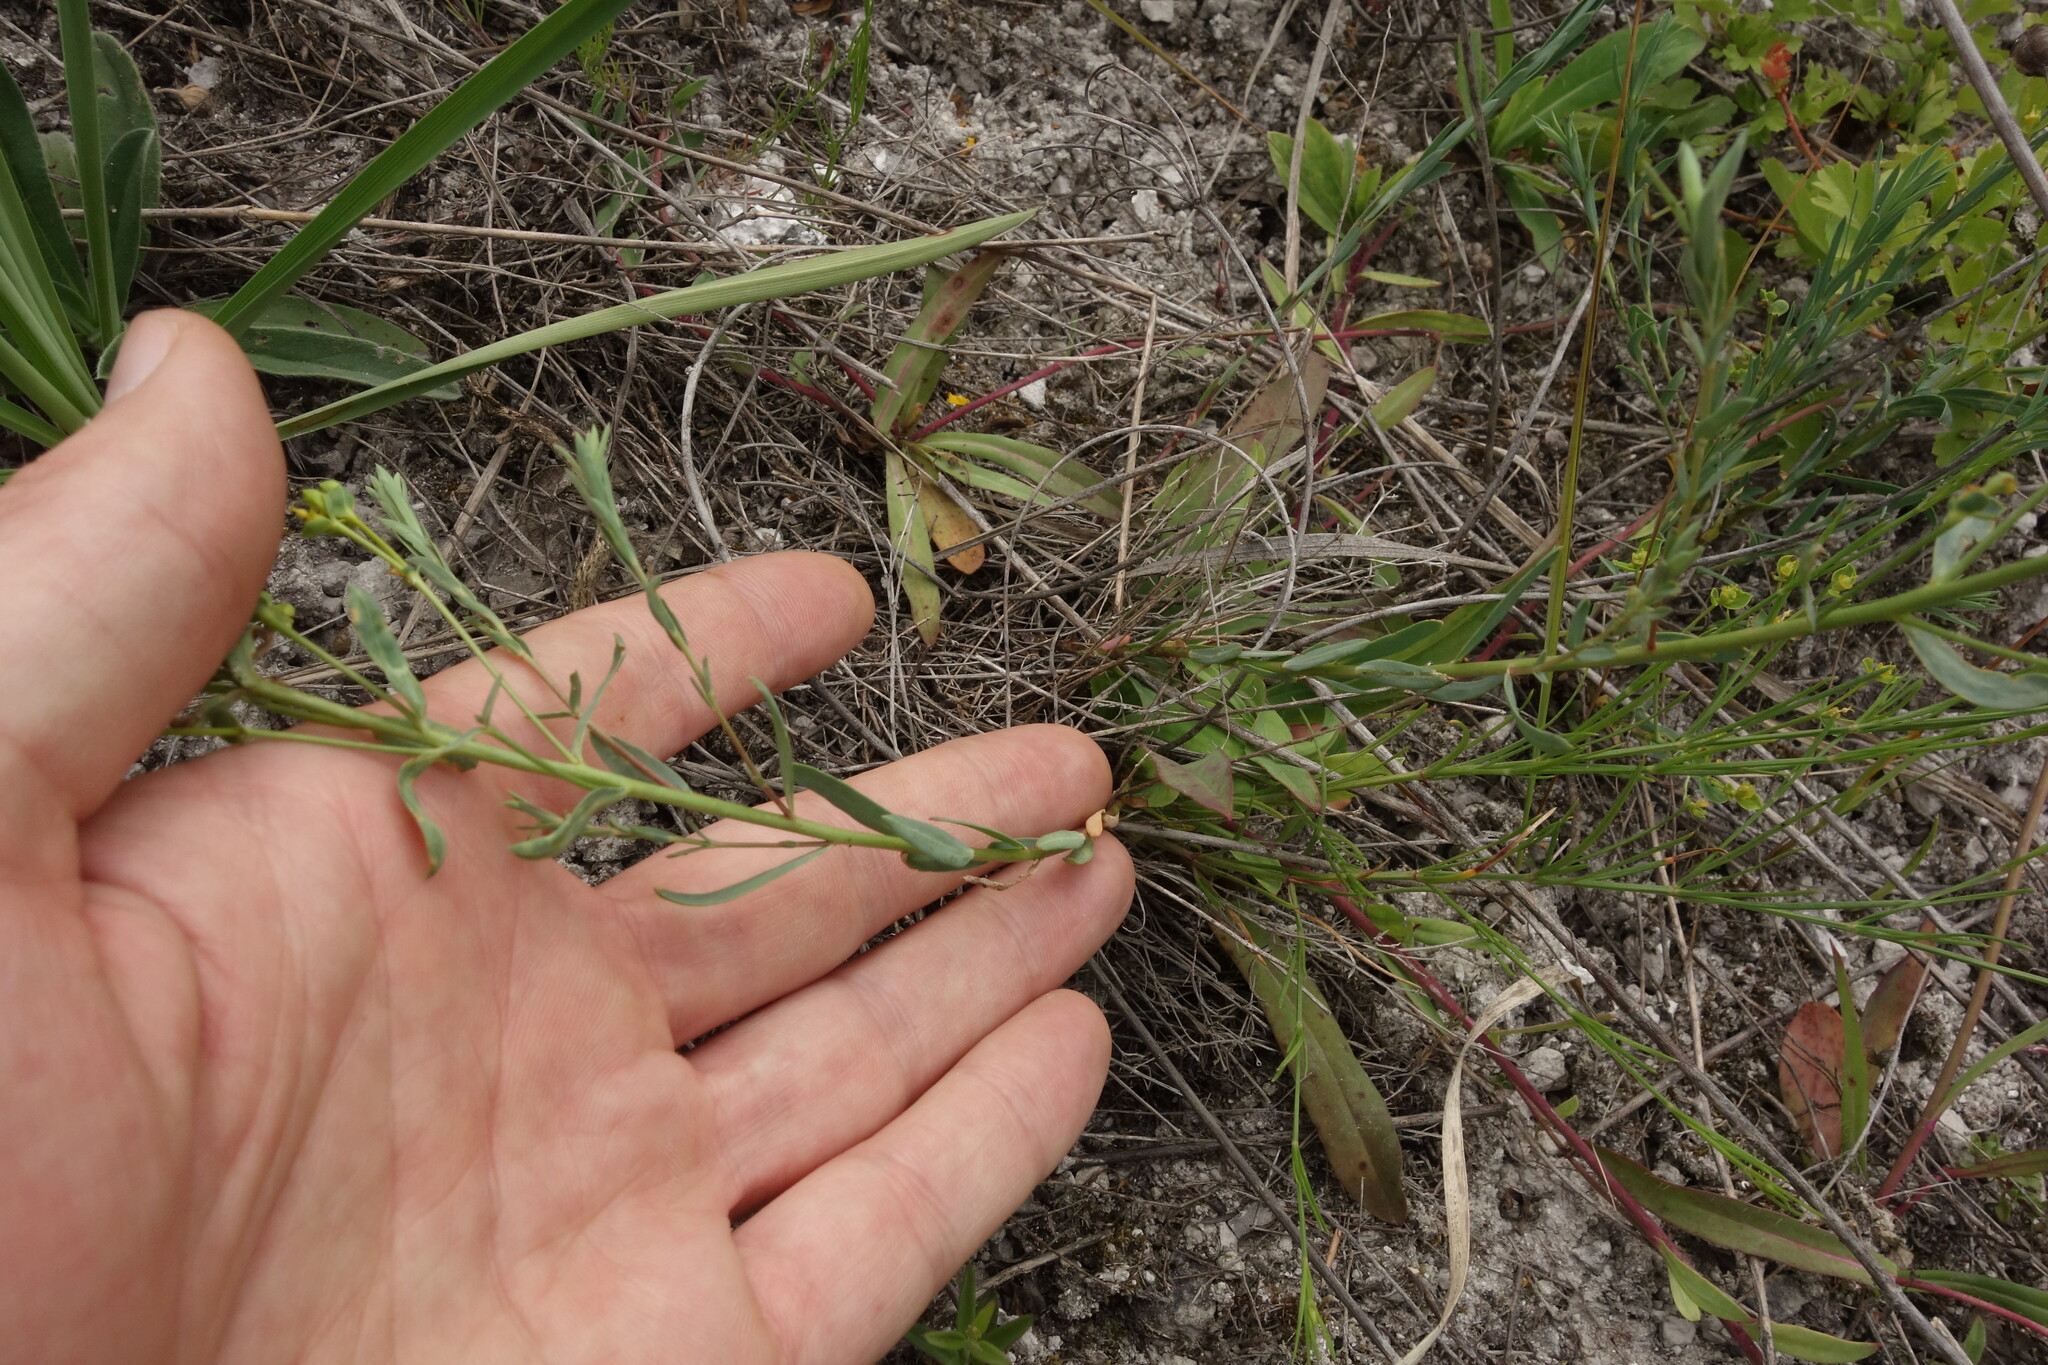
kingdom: Plantae
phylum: Tracheophyta
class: Magnoliopsida
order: Malpighiales
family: Euphorbiaceae
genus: Euphorbia
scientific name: Euphorbia seguieriana
